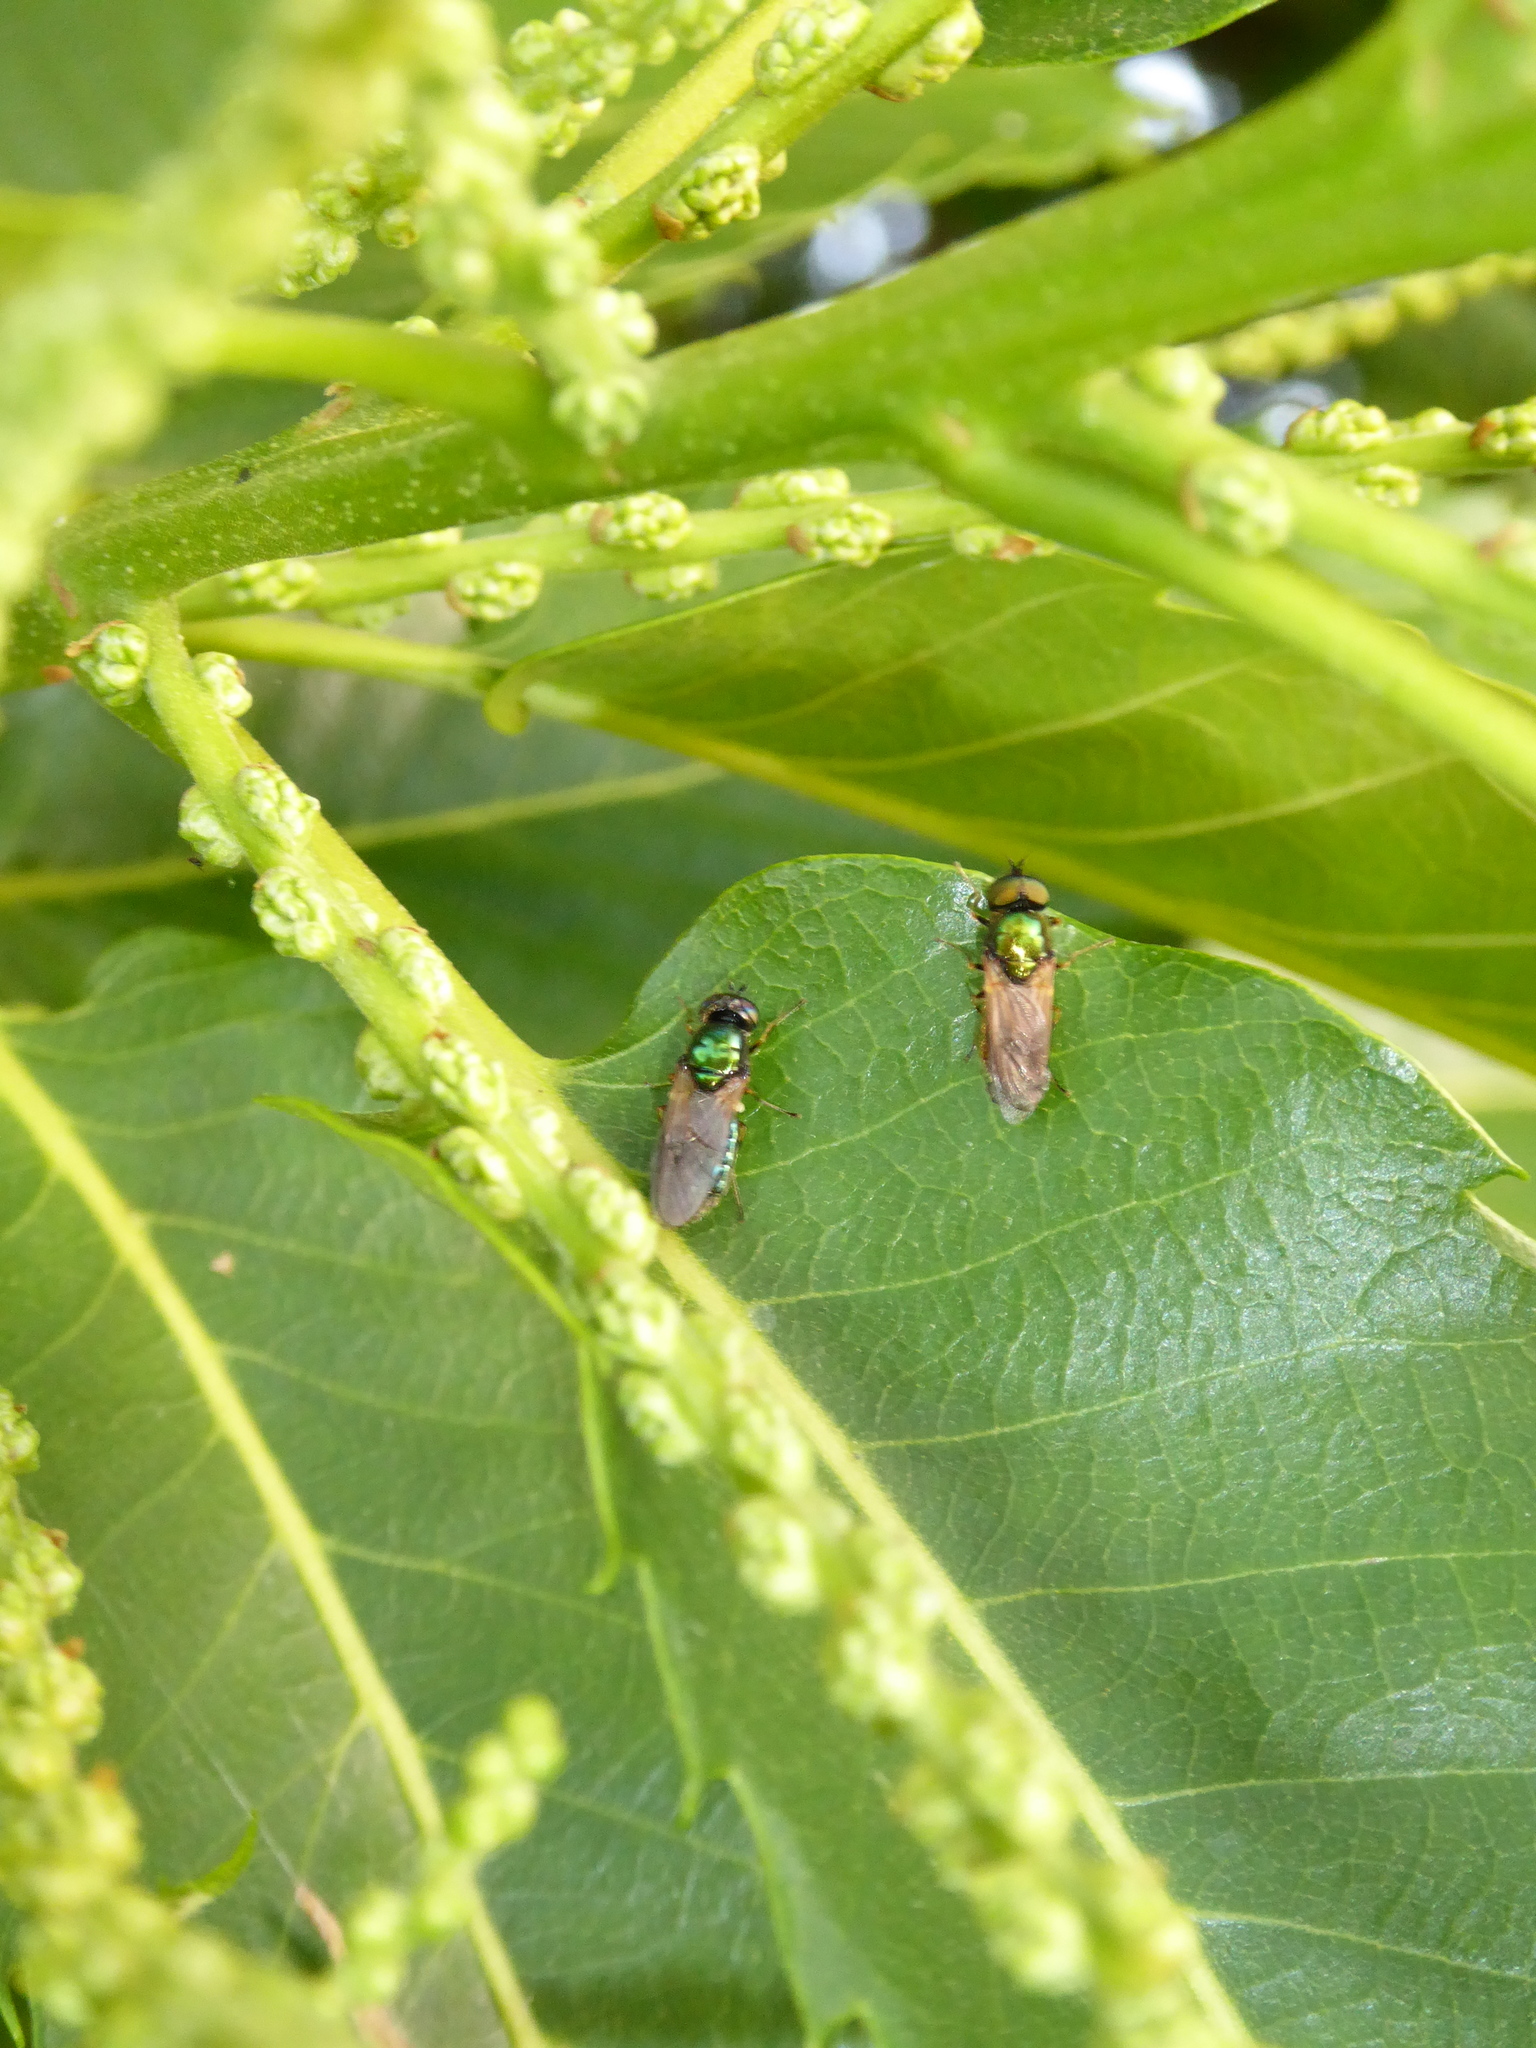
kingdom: Animalia
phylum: Arthropoda
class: Insecta
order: Diptera
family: Stratiomyidae
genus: Chloromyia
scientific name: Chloromyia formosa
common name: Soldier fly
